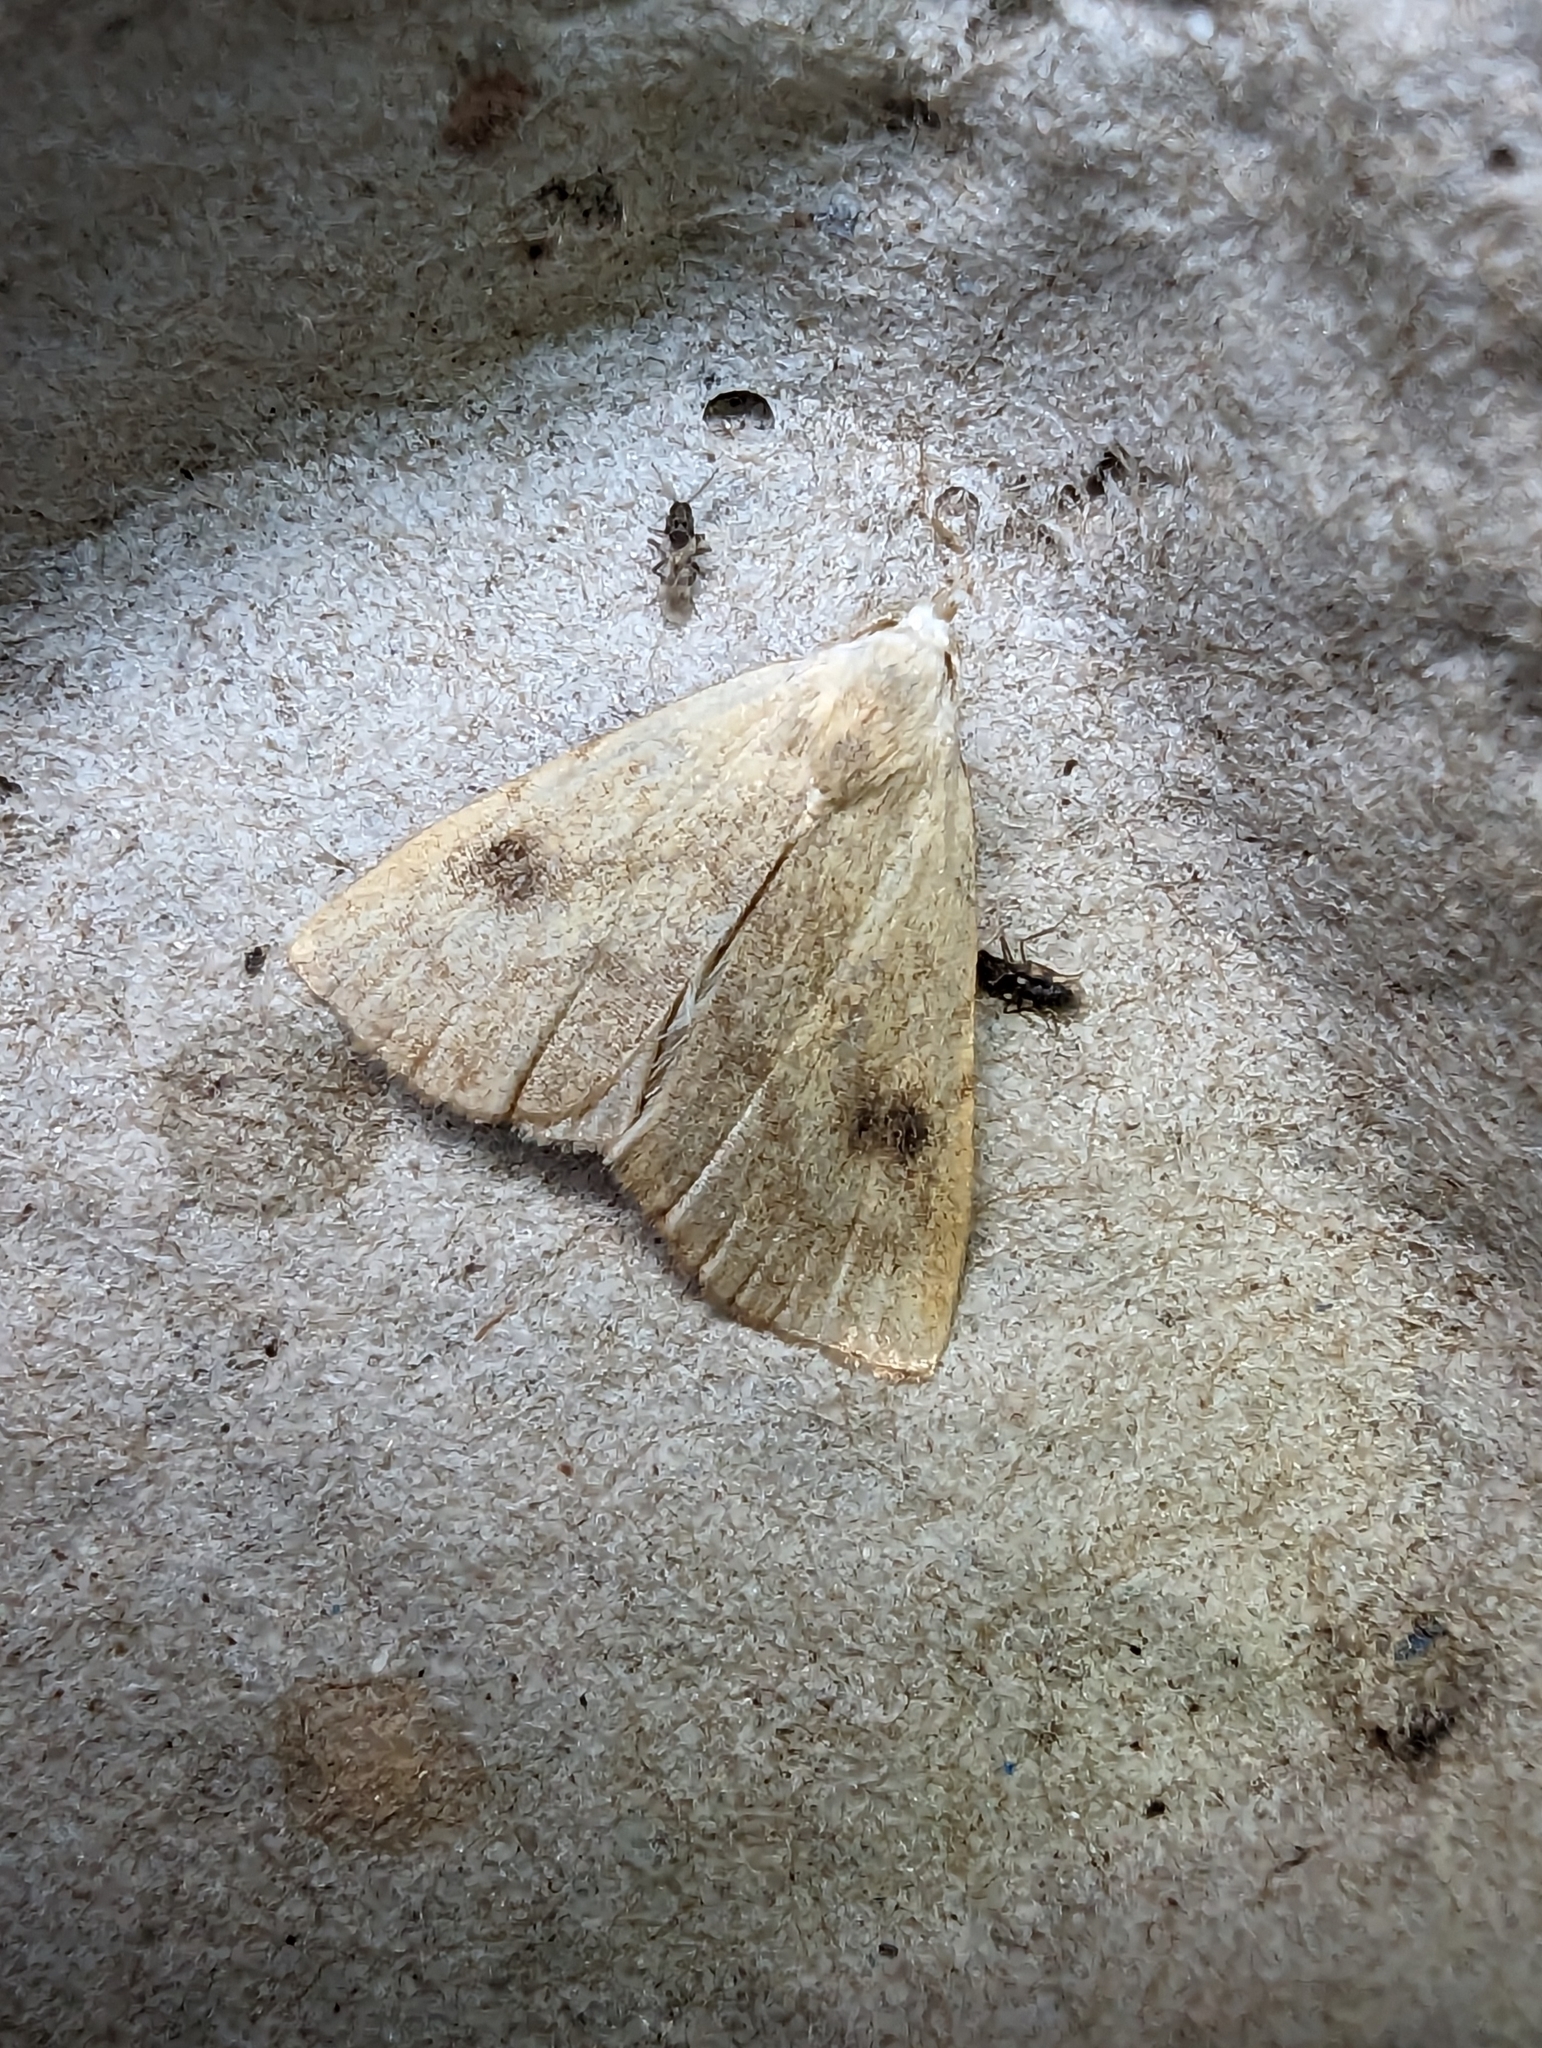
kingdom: Animalia
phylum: Arthropoda
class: Insecta
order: Lepidoptera
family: Erebidae
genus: Rivula
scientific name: Rivula sericealis
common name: Straw dot
